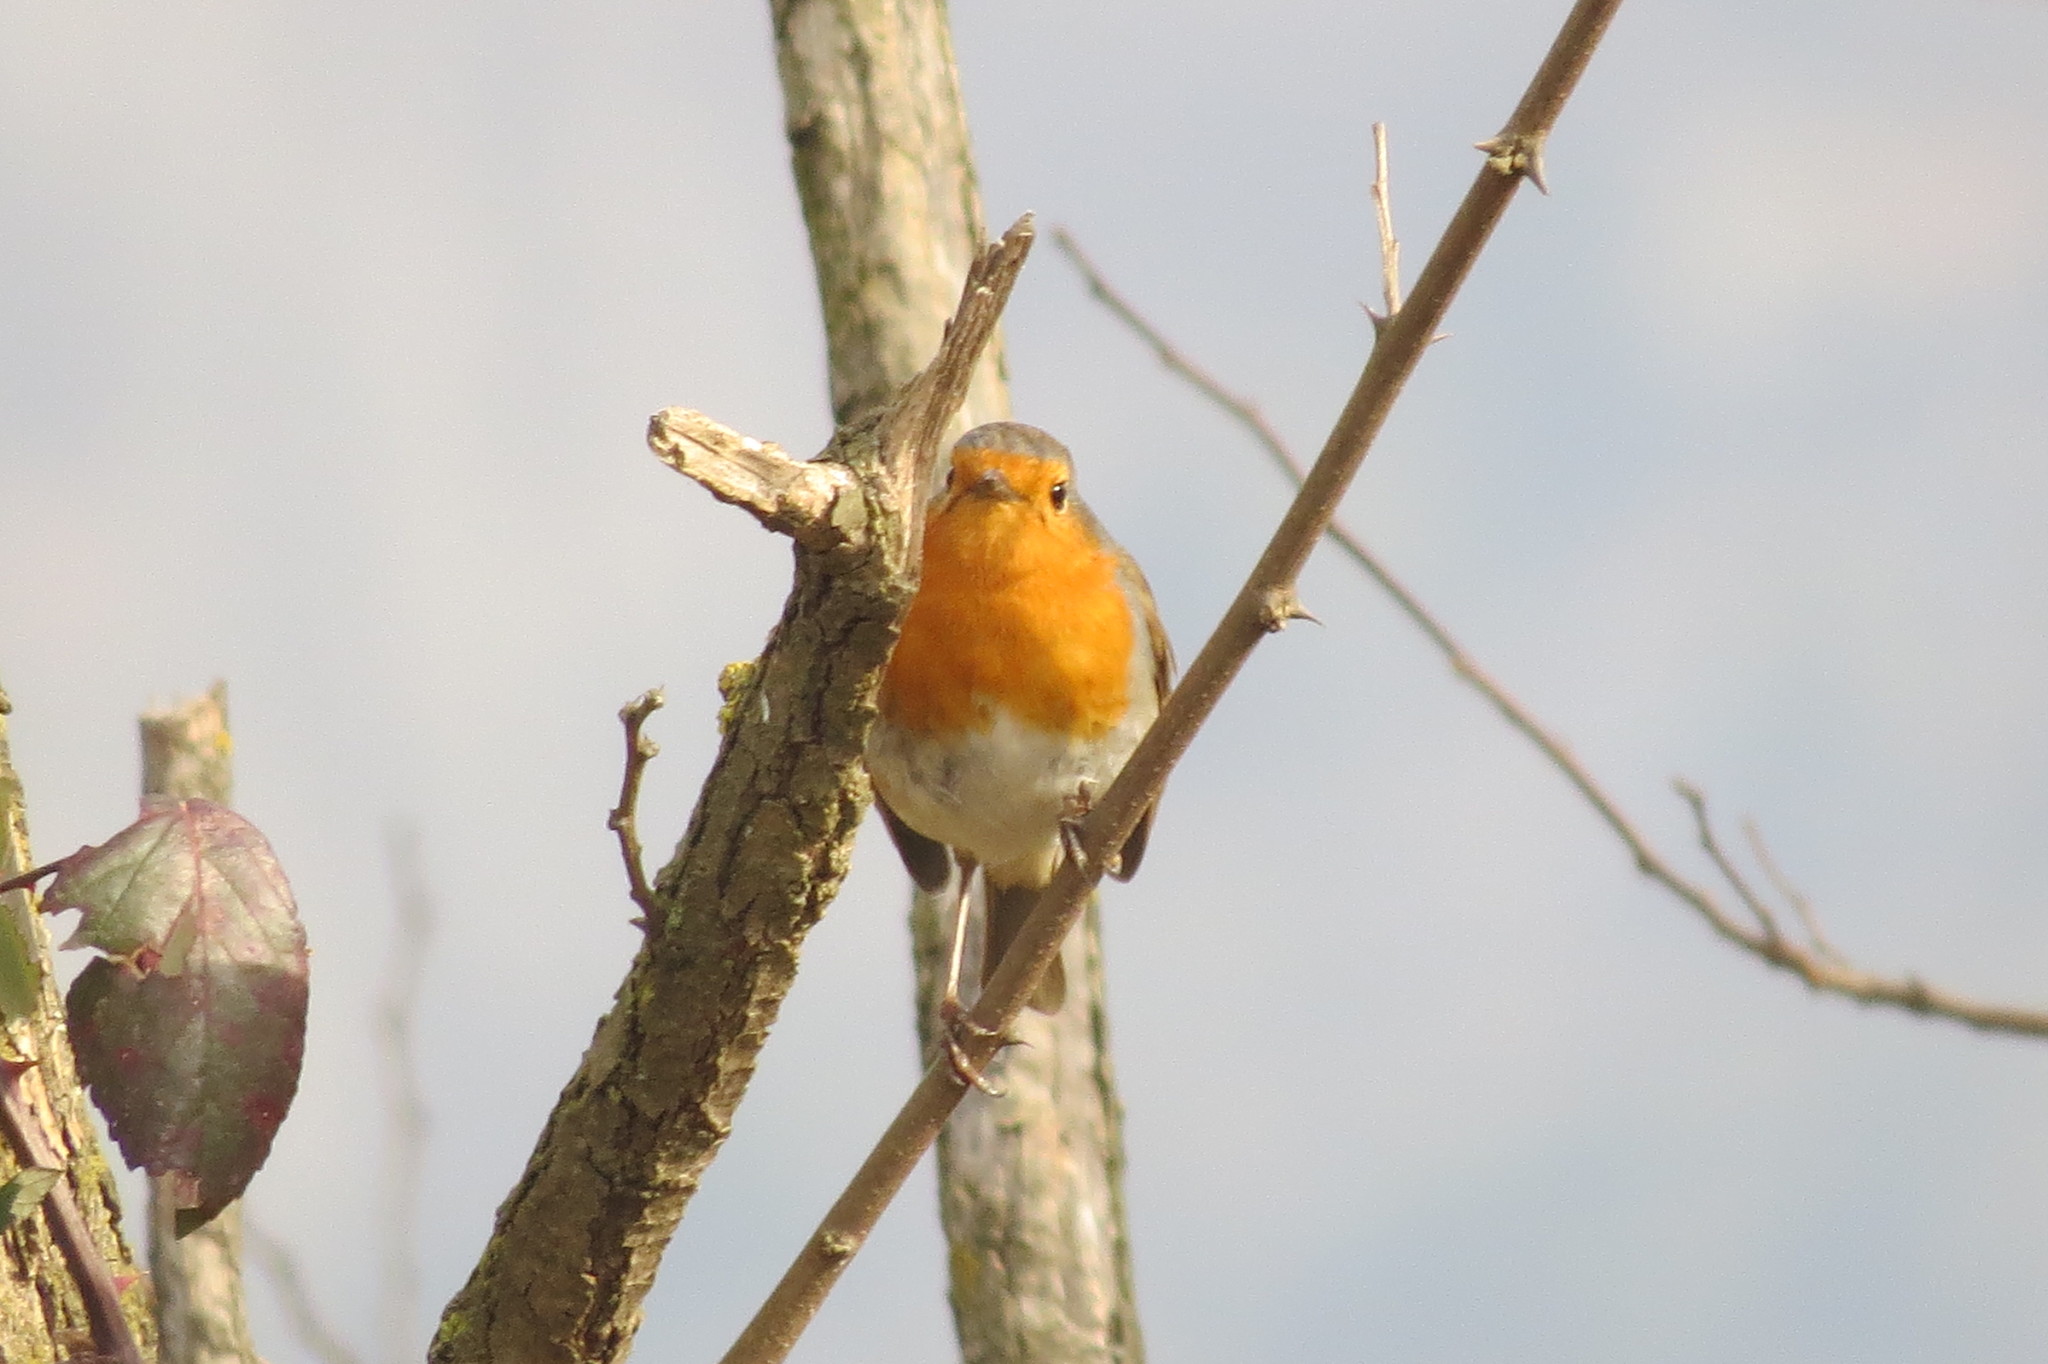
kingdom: Animalia
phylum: Chordata
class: Aves
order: Passeriformes
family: Muscicapidae
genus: Erithacus
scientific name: Erithacus rubecula
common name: European robin
